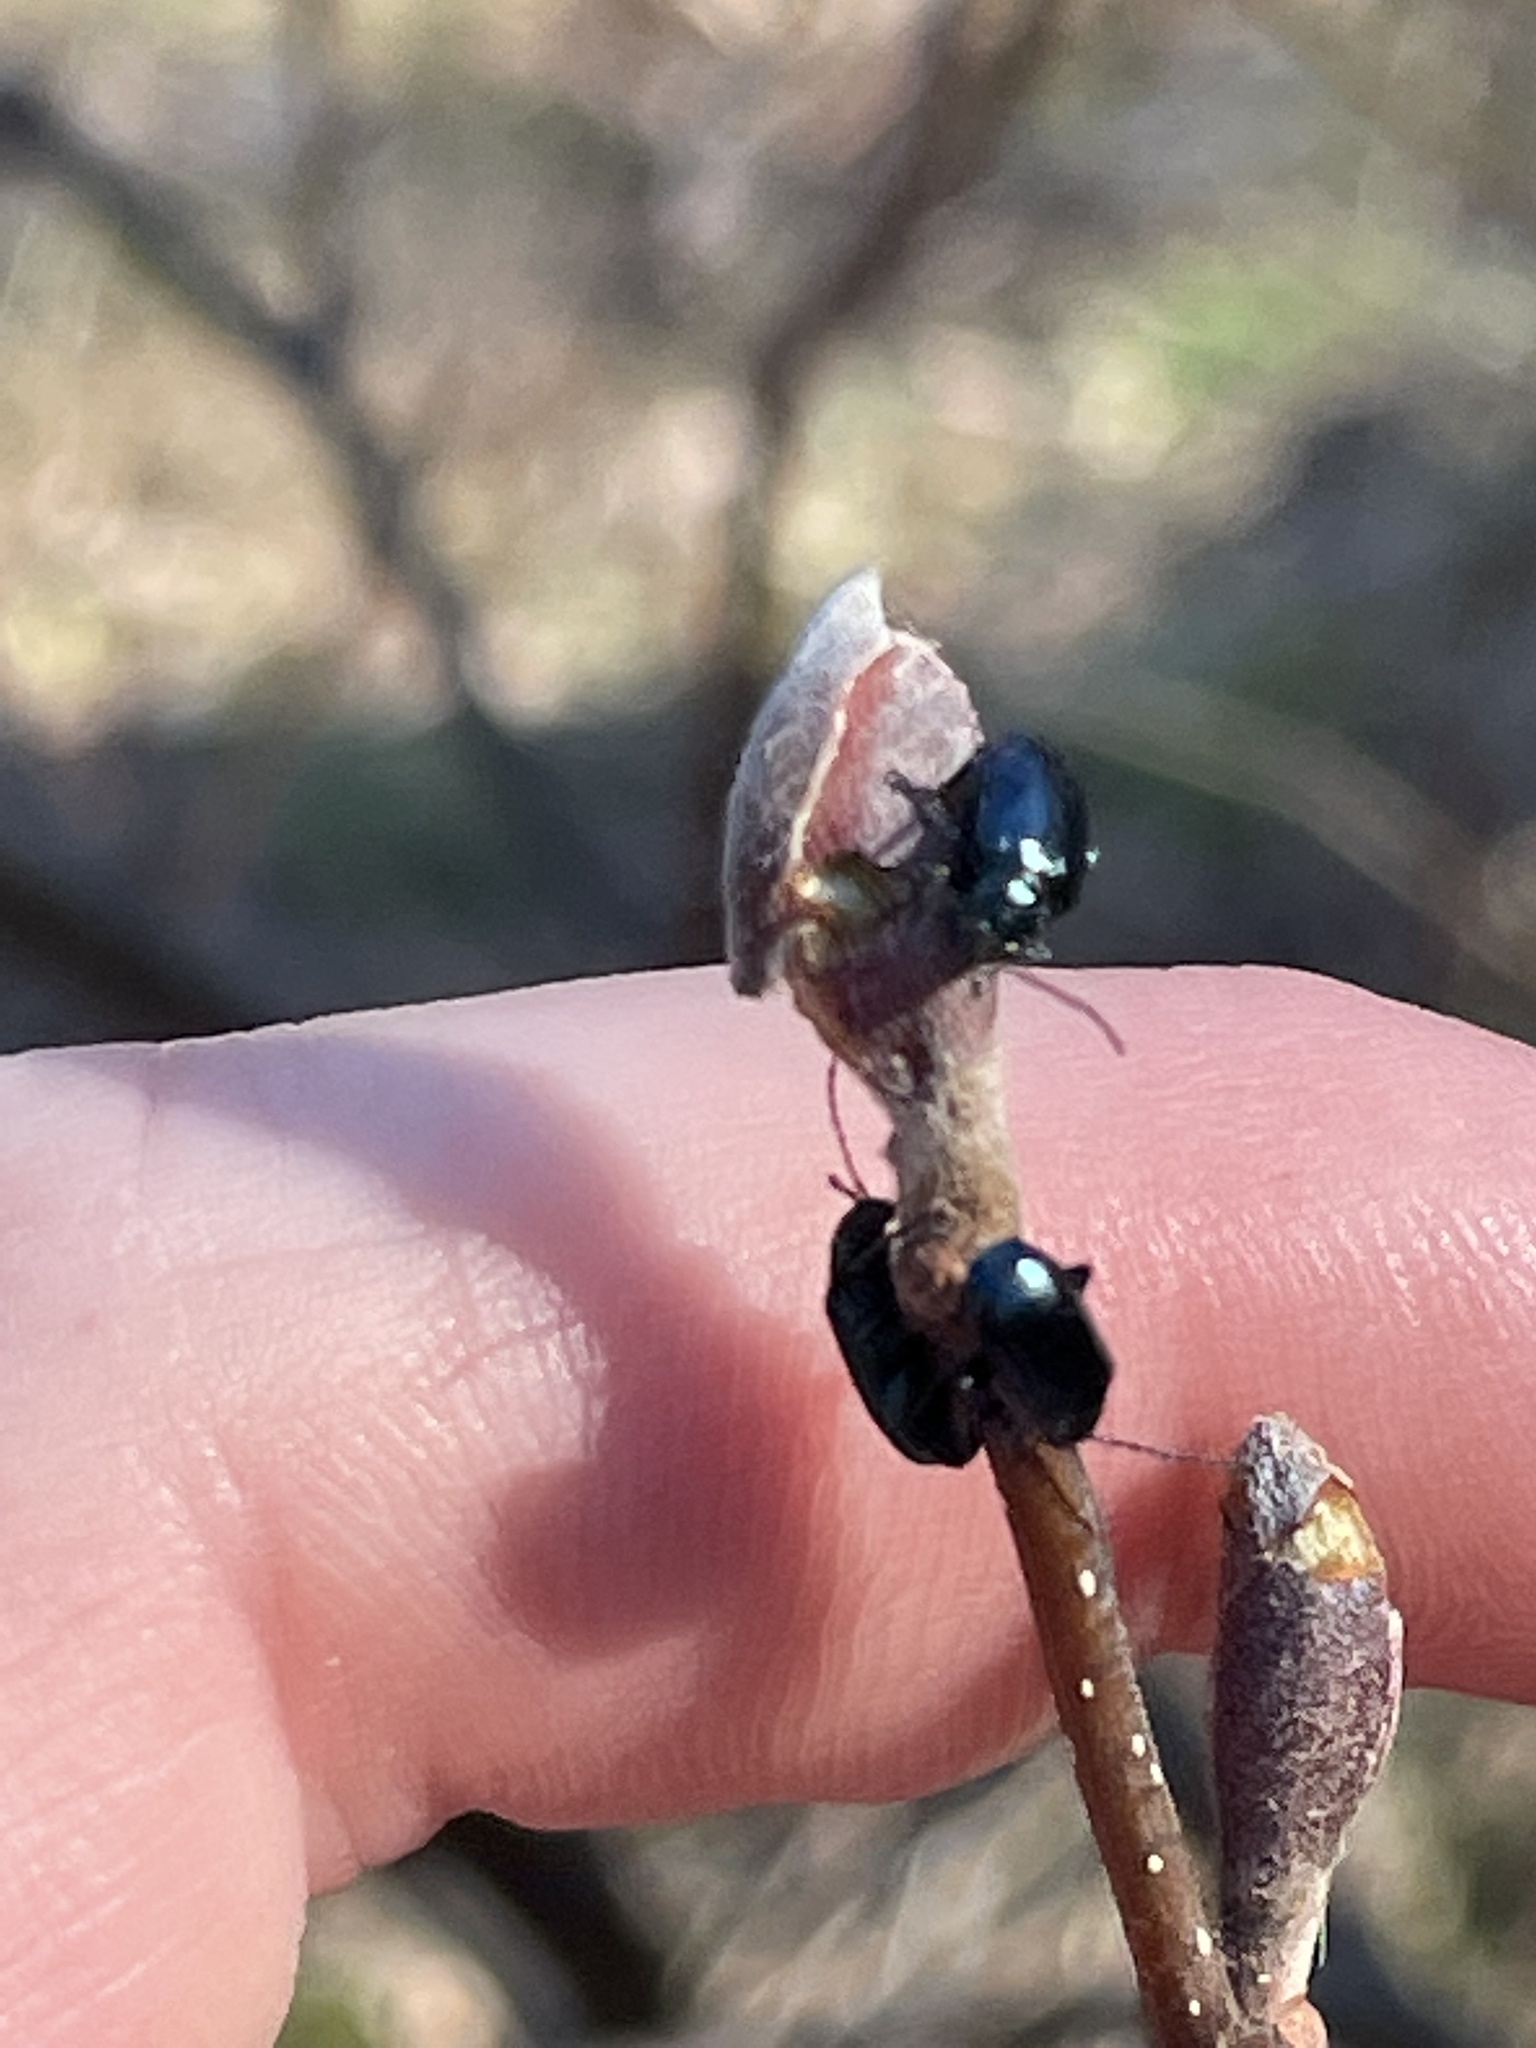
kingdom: Animalia
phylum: Arthropoda
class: Insecta
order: Coleoptera
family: Chrysomelidae
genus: Altica
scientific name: Altica ambiens
